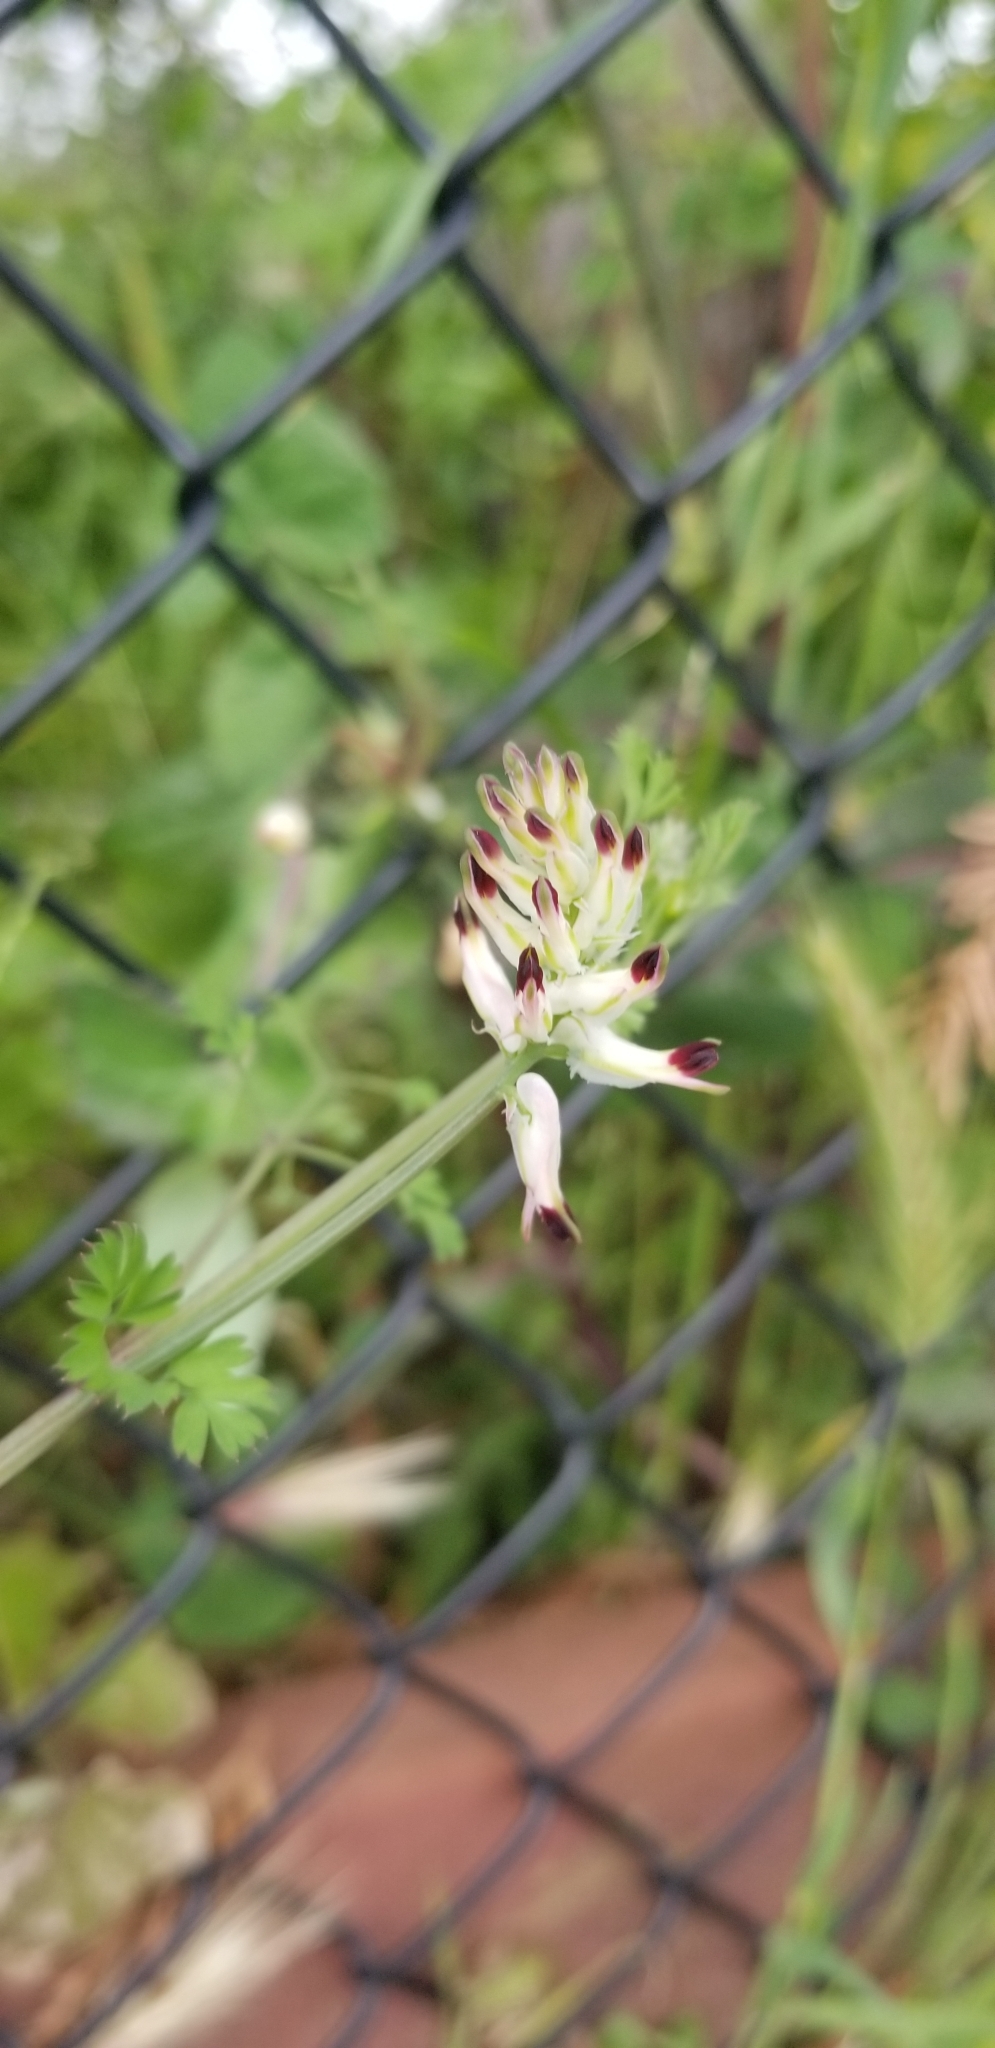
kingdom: Plantae
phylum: Tracheophyta
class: Magnoliopsida
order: Ranunculales
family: Papaveraceae
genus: Fumaria
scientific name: Fumaria capreolata
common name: White ramping-fumitory
